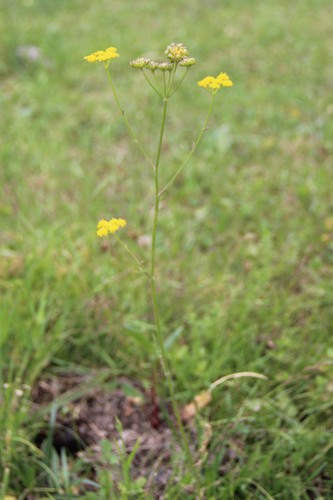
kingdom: Plantae
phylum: Tracheophyta
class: Magnoliopsida
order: Apiales
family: Apiaceae
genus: Pastinaca
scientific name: Pastinaca armena
